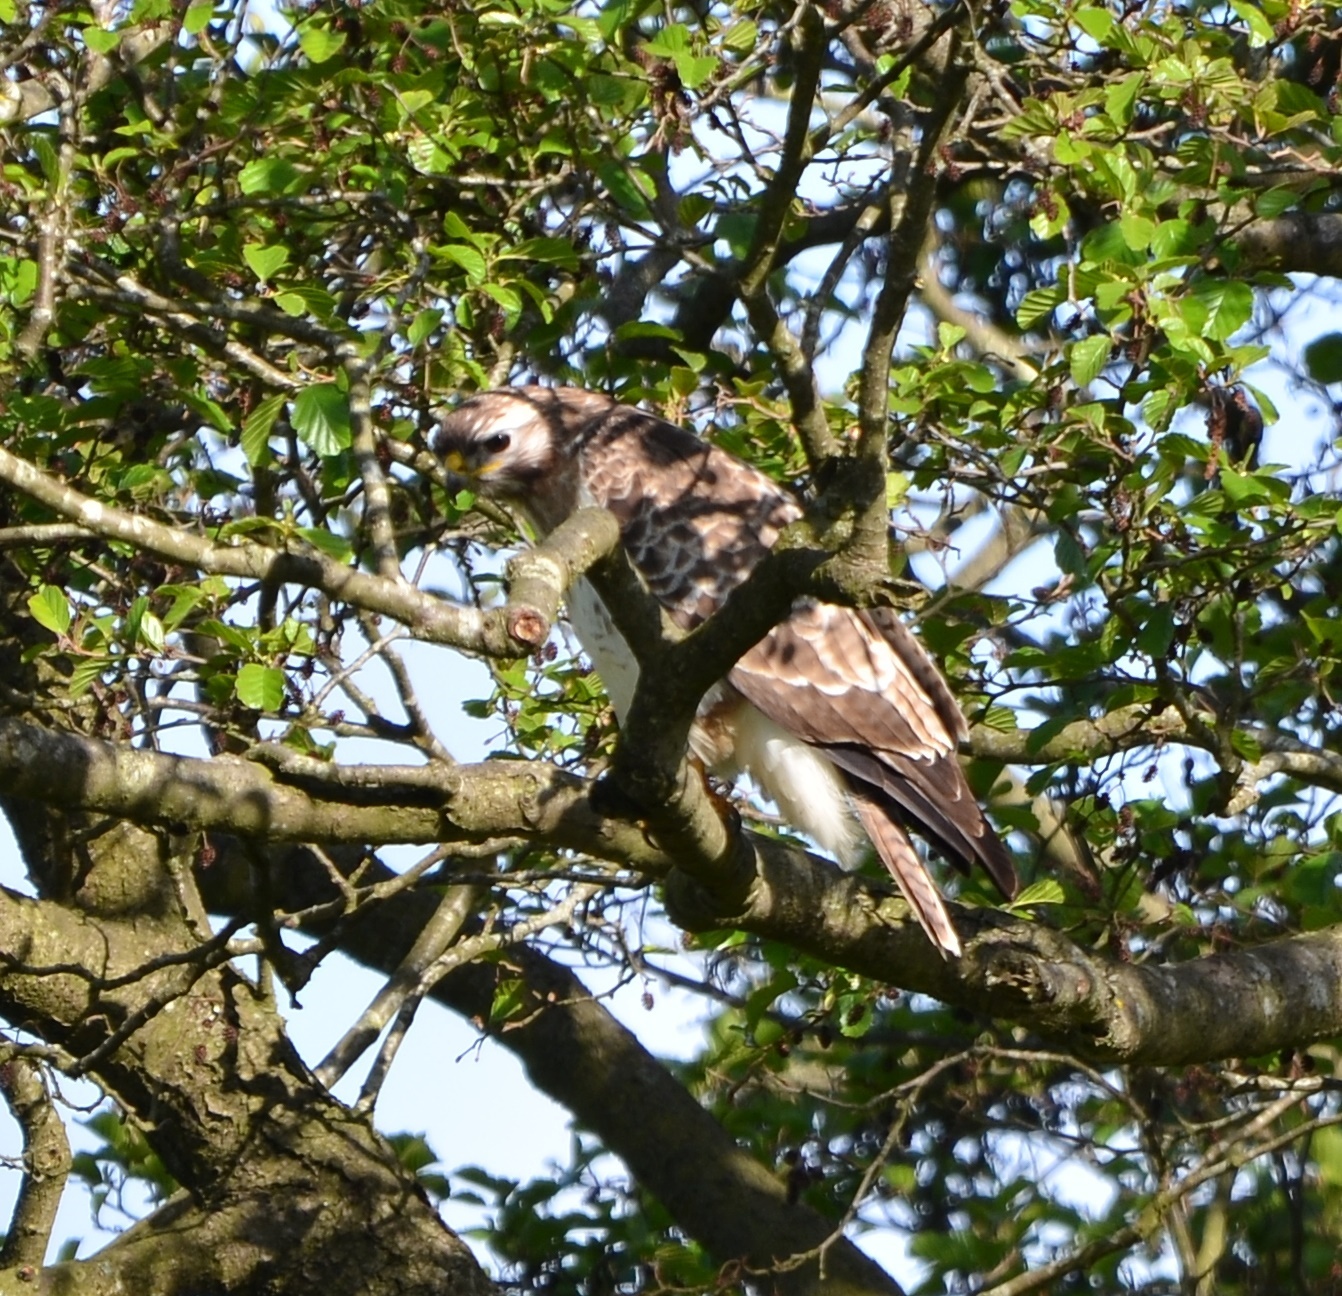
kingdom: Animalia
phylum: Chordata
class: Aves
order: Accipitriformes
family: Accipitridae
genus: Buteo
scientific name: Buteo buteo
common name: Common buzzard
